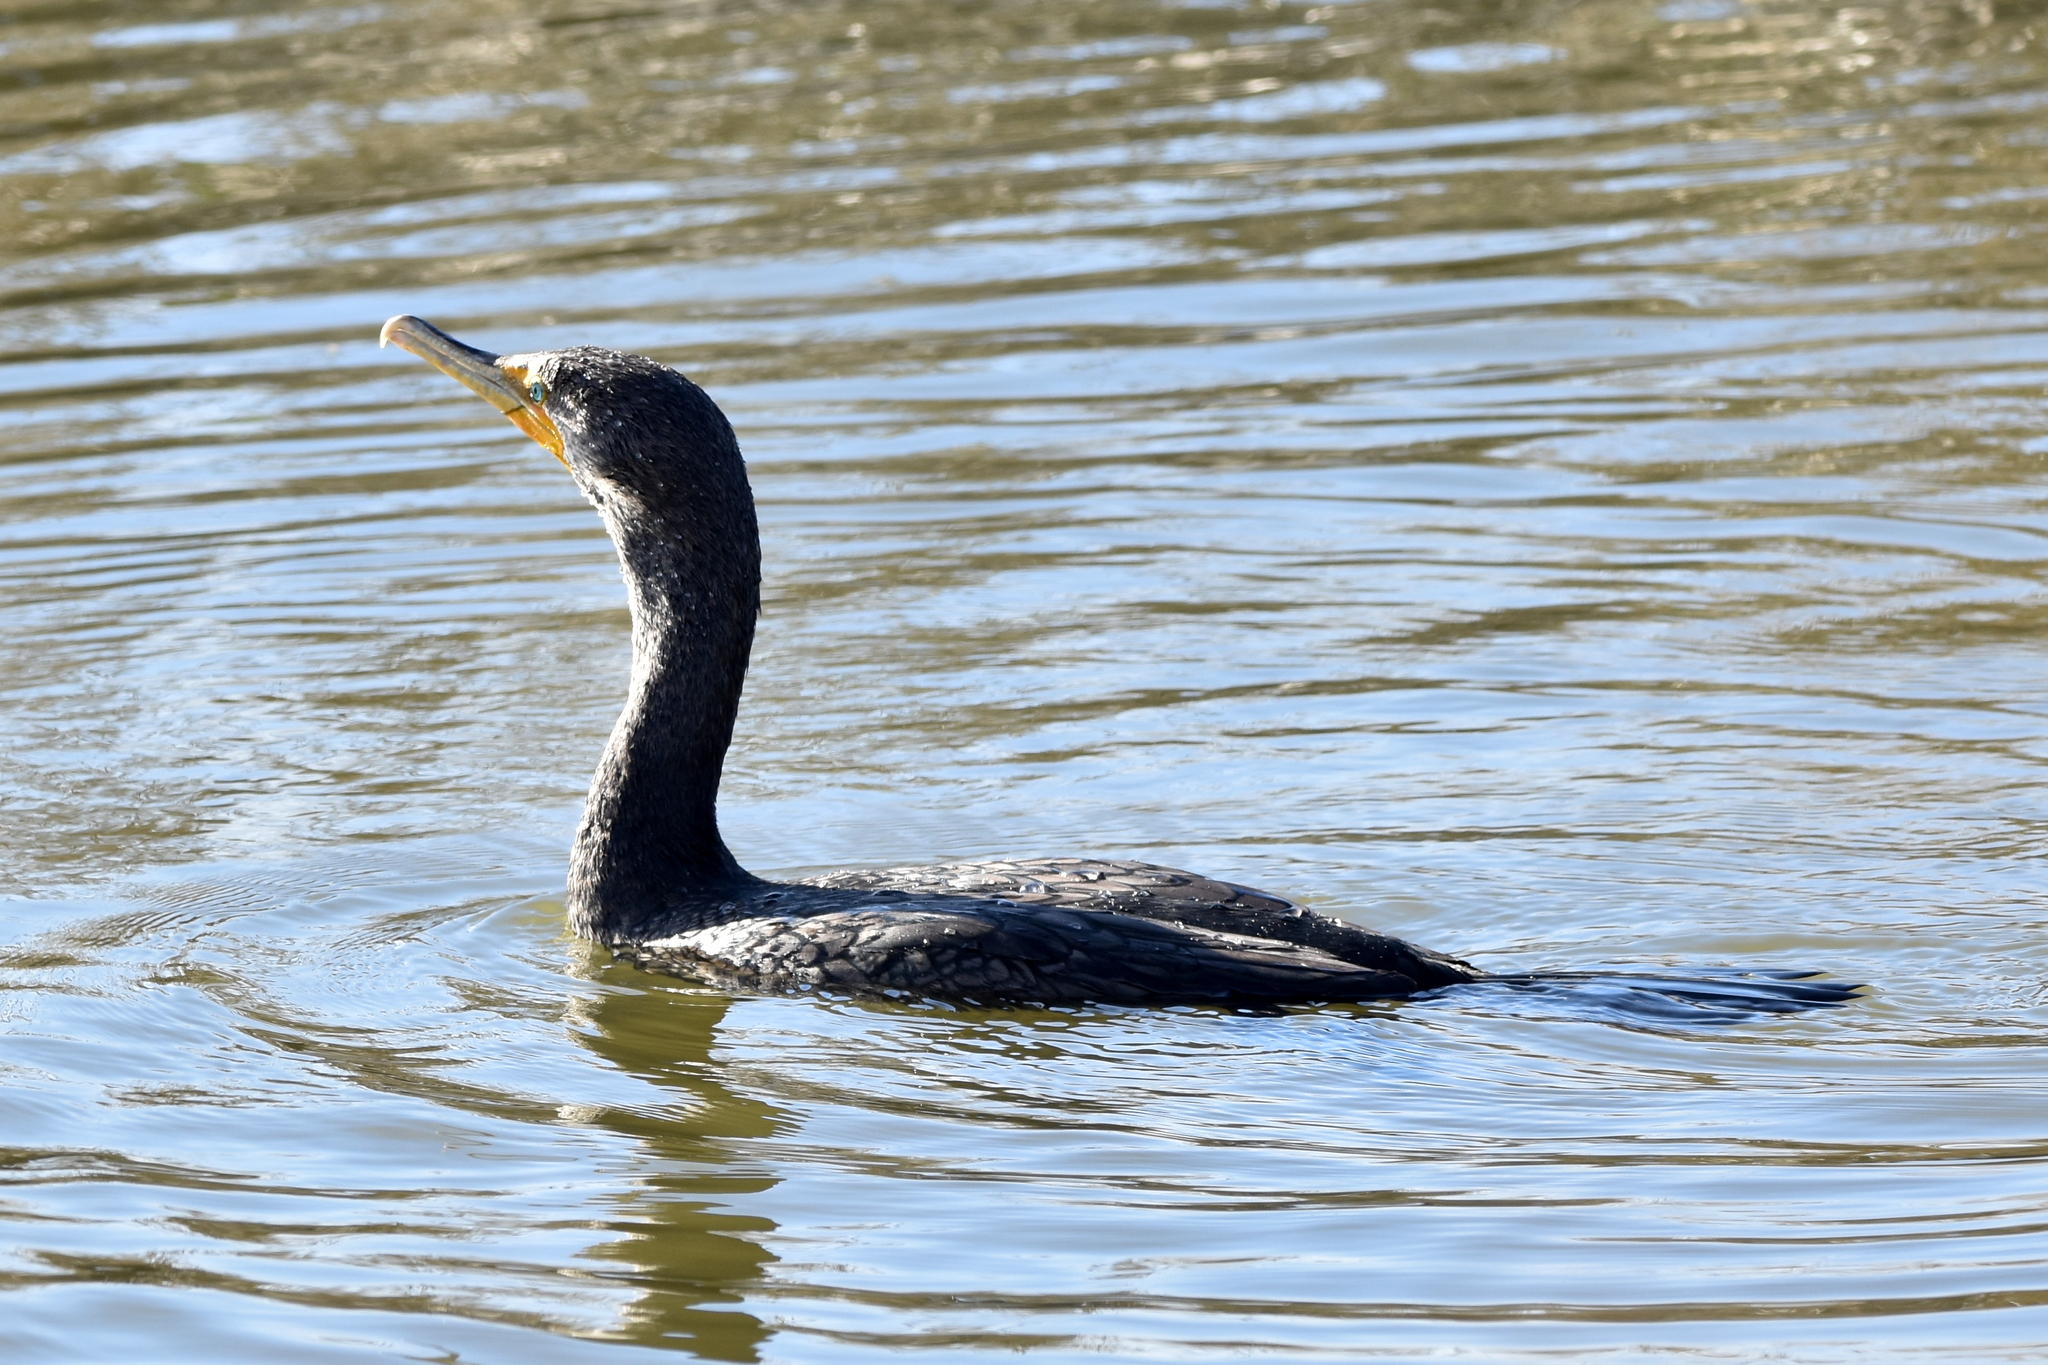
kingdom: Animalia
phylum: Chordata
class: Aves
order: Suliformes
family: Phalacrocoracidae
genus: Phalacrocorax
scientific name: Phalacrocorax auritus
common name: Double-crested cormorant
